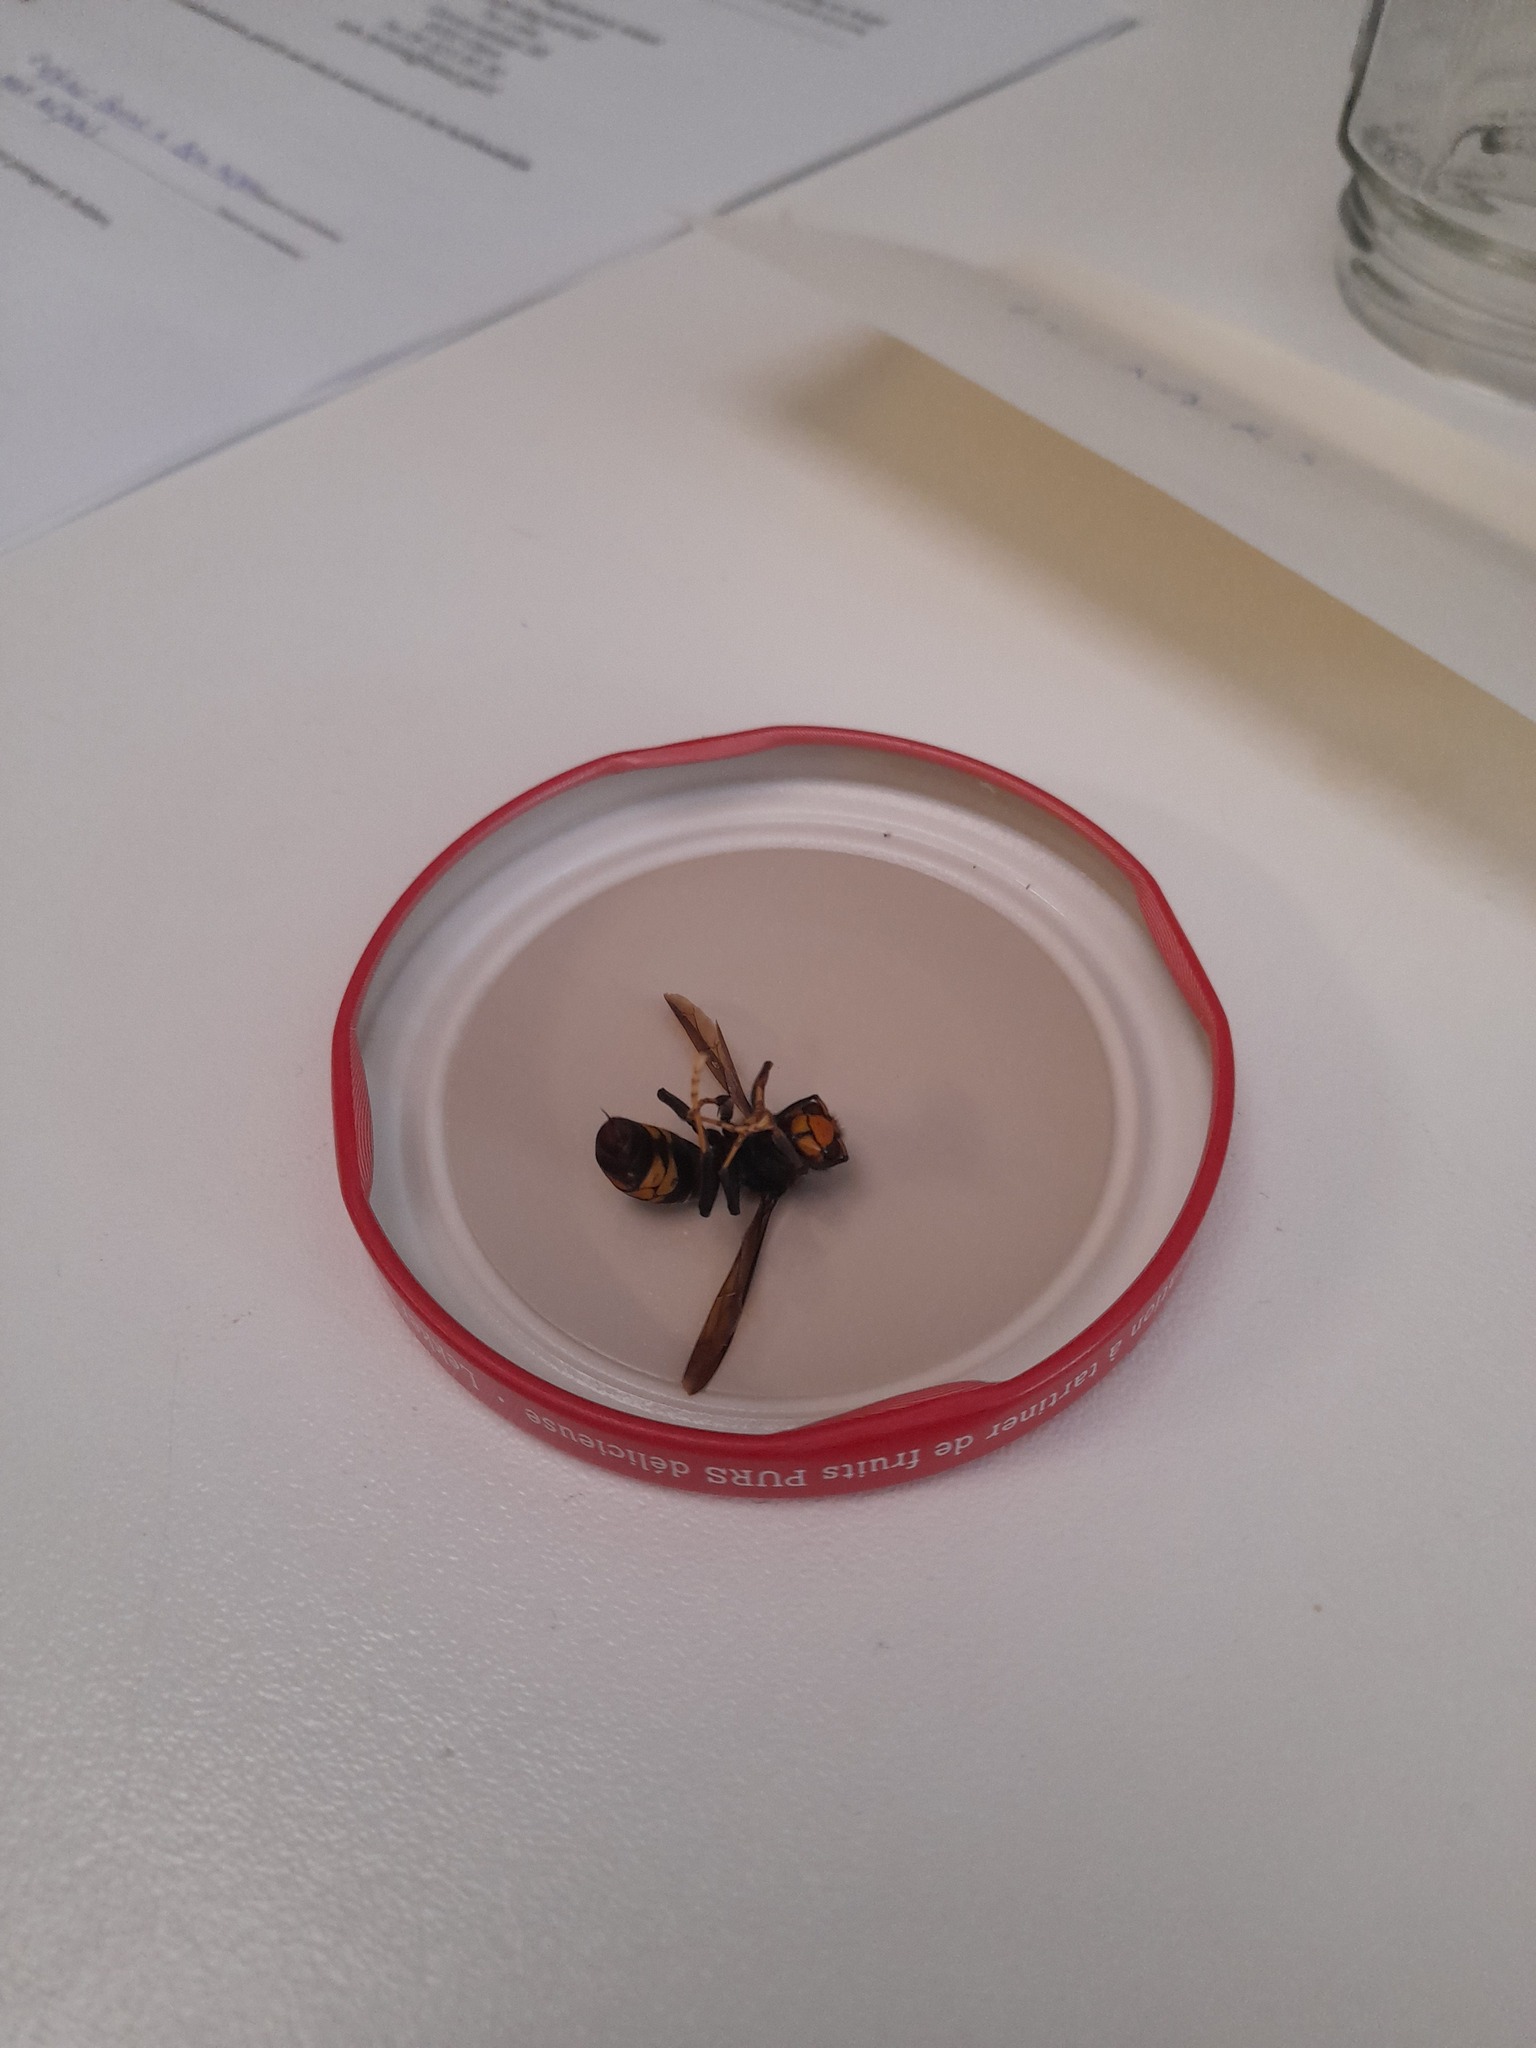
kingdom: Animalia
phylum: Arthropoda
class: Insecta
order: Hymenoptera
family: Vespidae
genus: Vespa
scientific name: Vespa velutina
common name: Asian hornet
